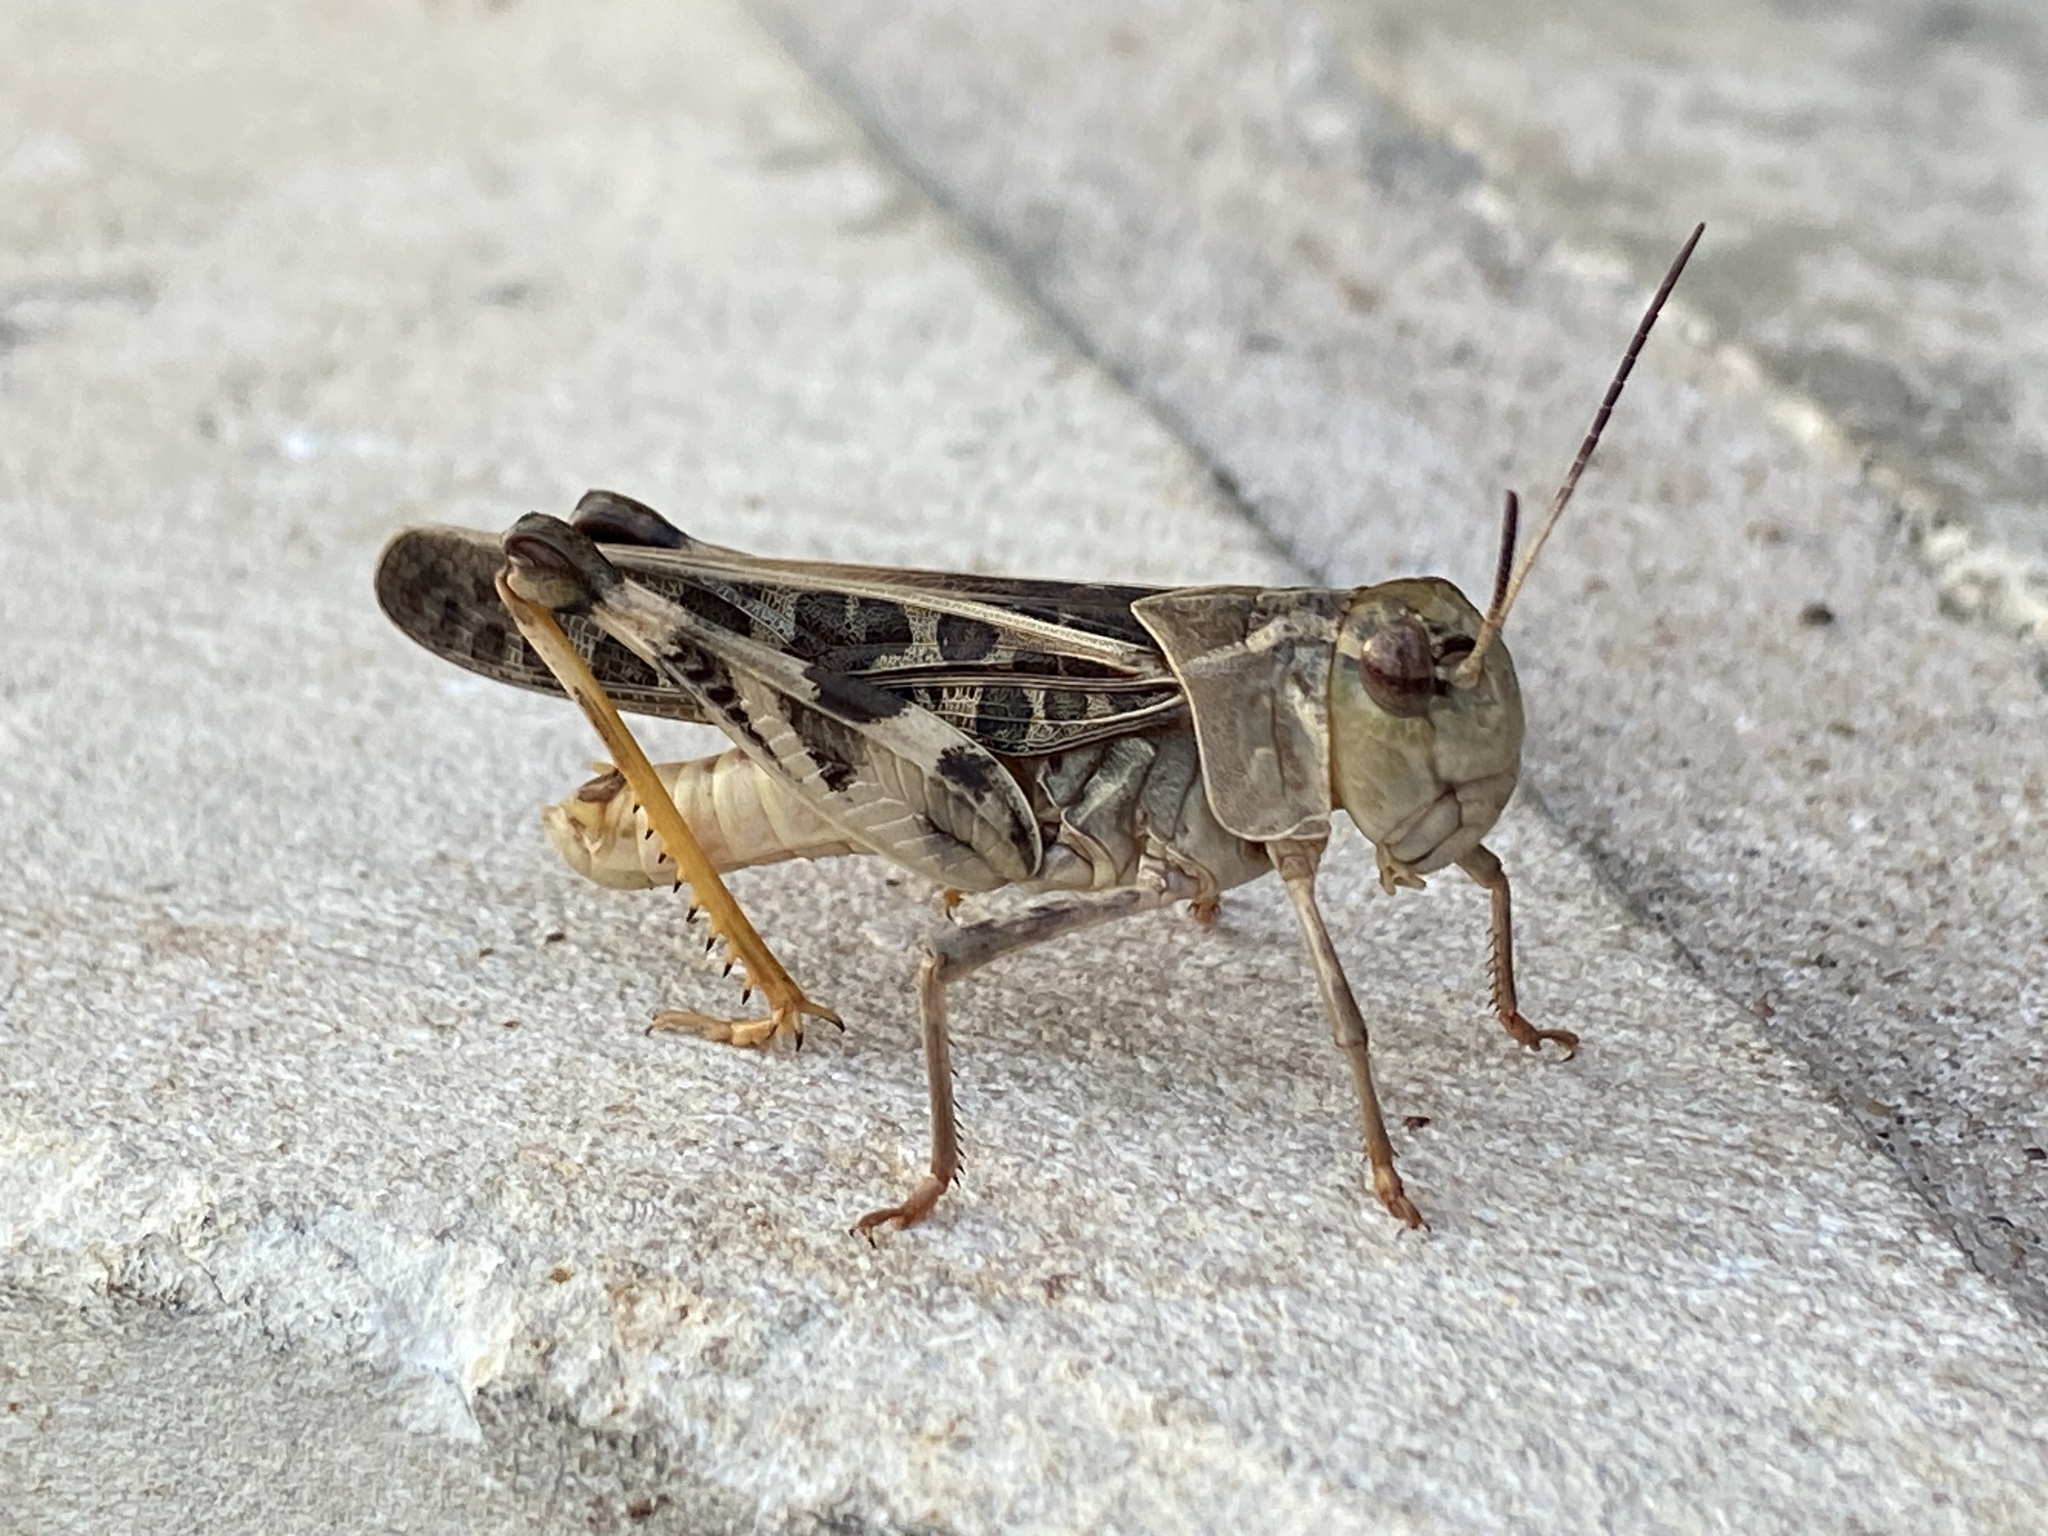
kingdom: Animalia
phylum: Arthropoda
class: Insecta
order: Orthoptera
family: Acrididae
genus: Hippiscus
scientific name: Hippiscus ocelote
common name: Wrinkled grasshopper
